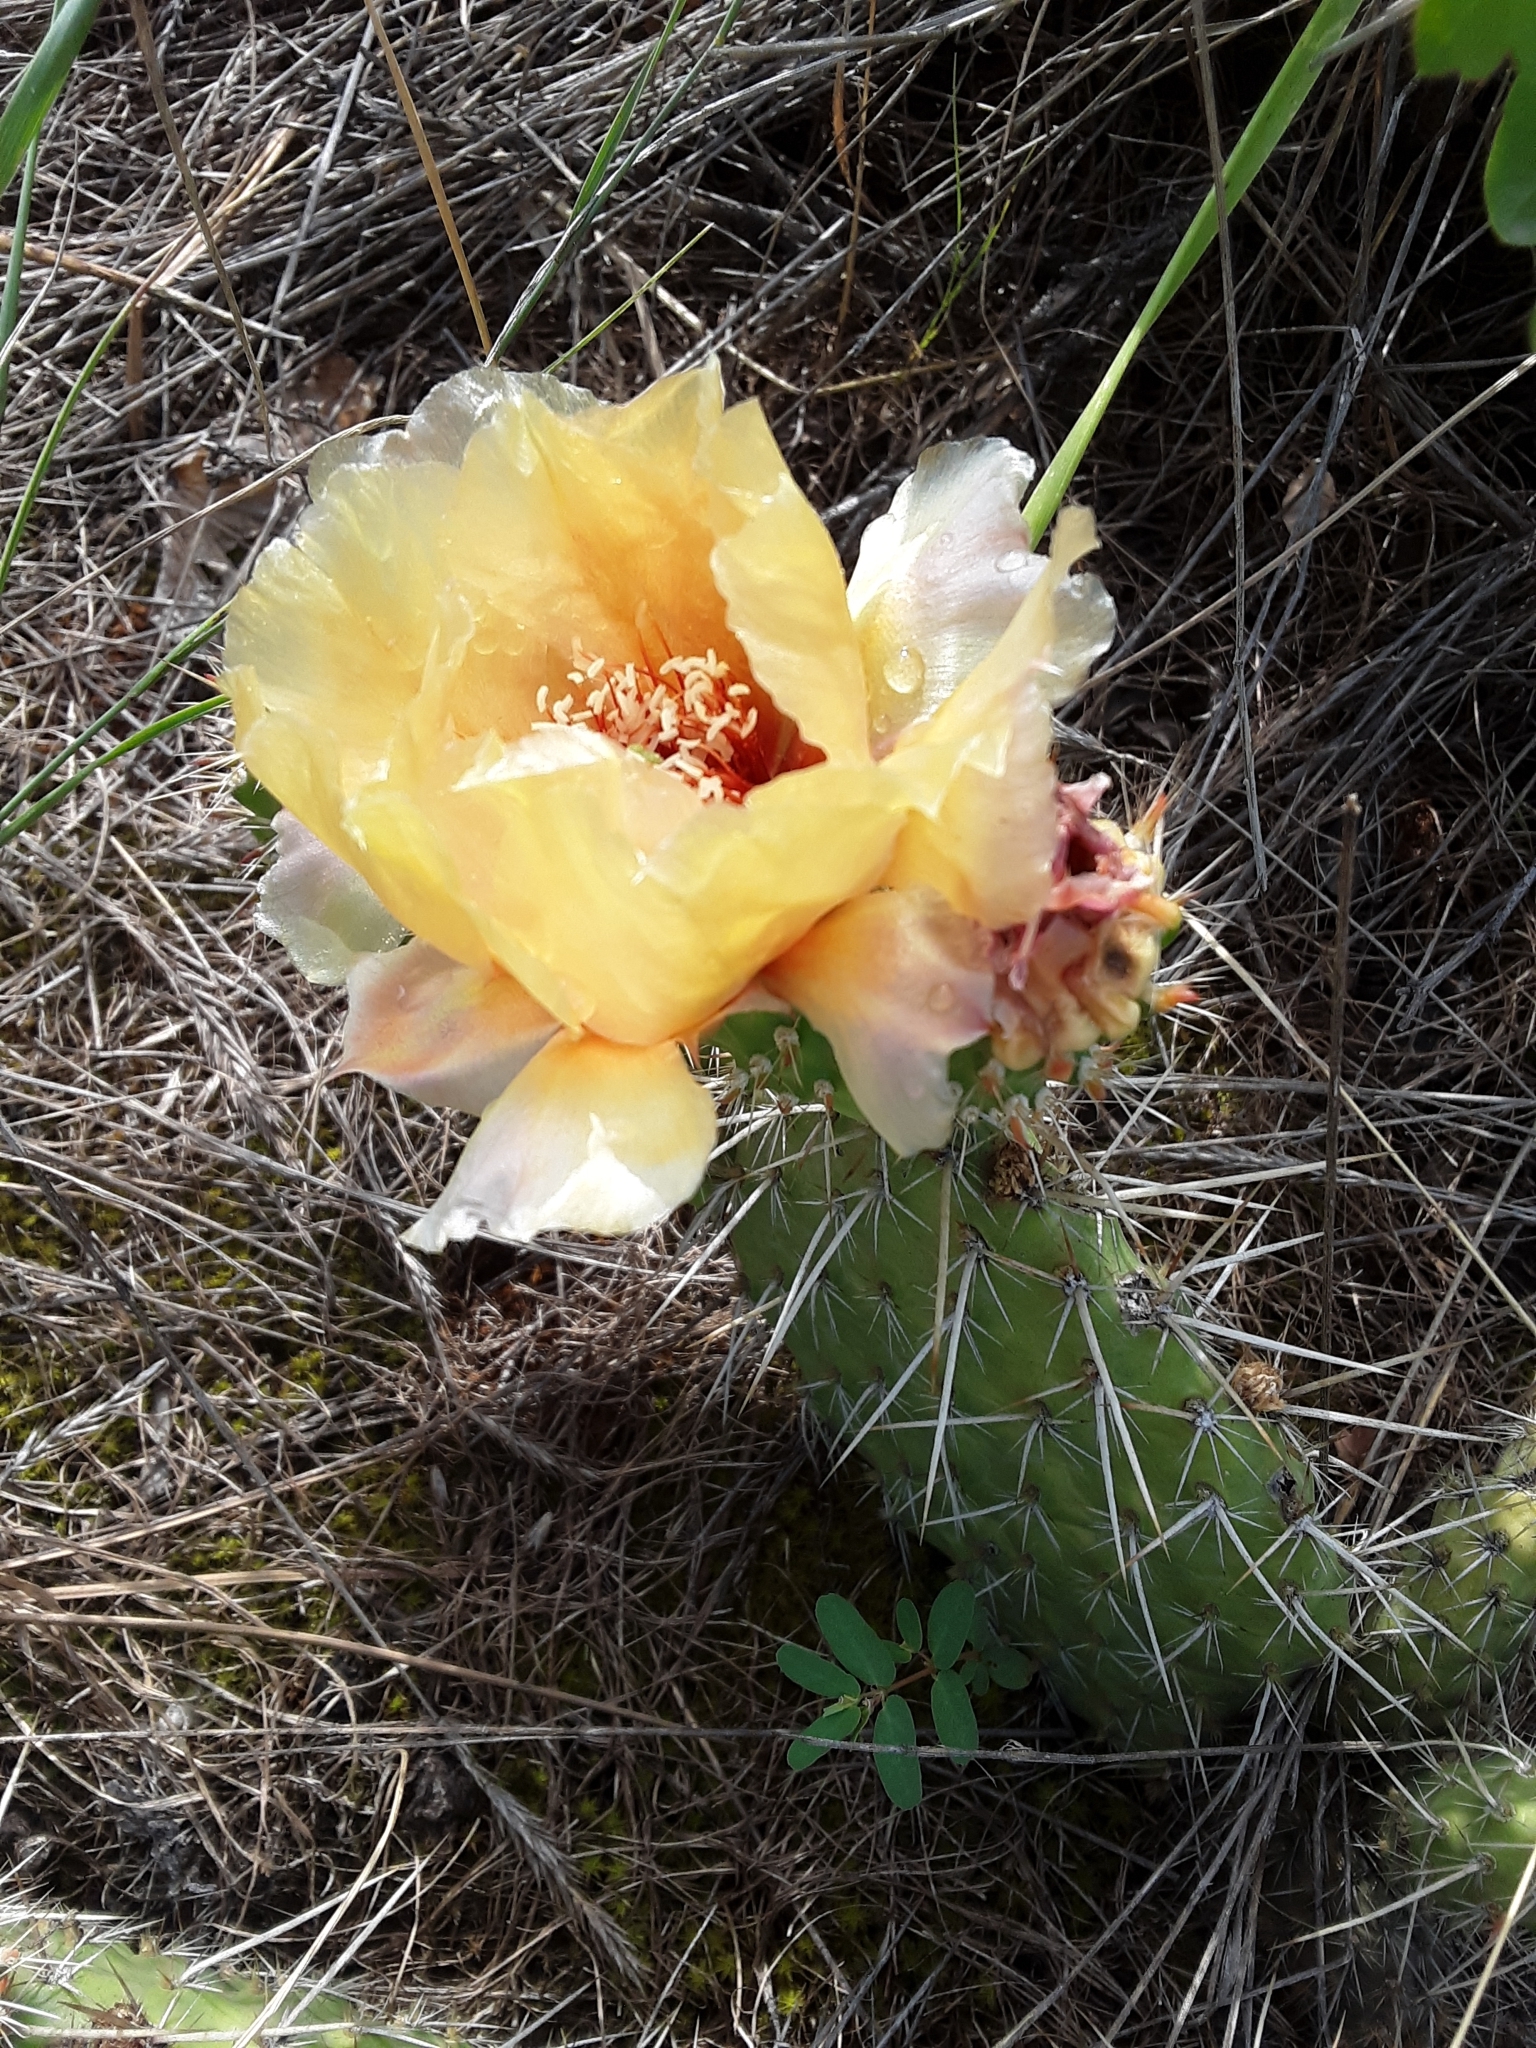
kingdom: Plantae
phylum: Tracheophyta
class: Magnoliopsida
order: Caryophyllales
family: Cactaceae
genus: Opuntia
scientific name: Opuntia polyacantha
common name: Plains prickly-pear
